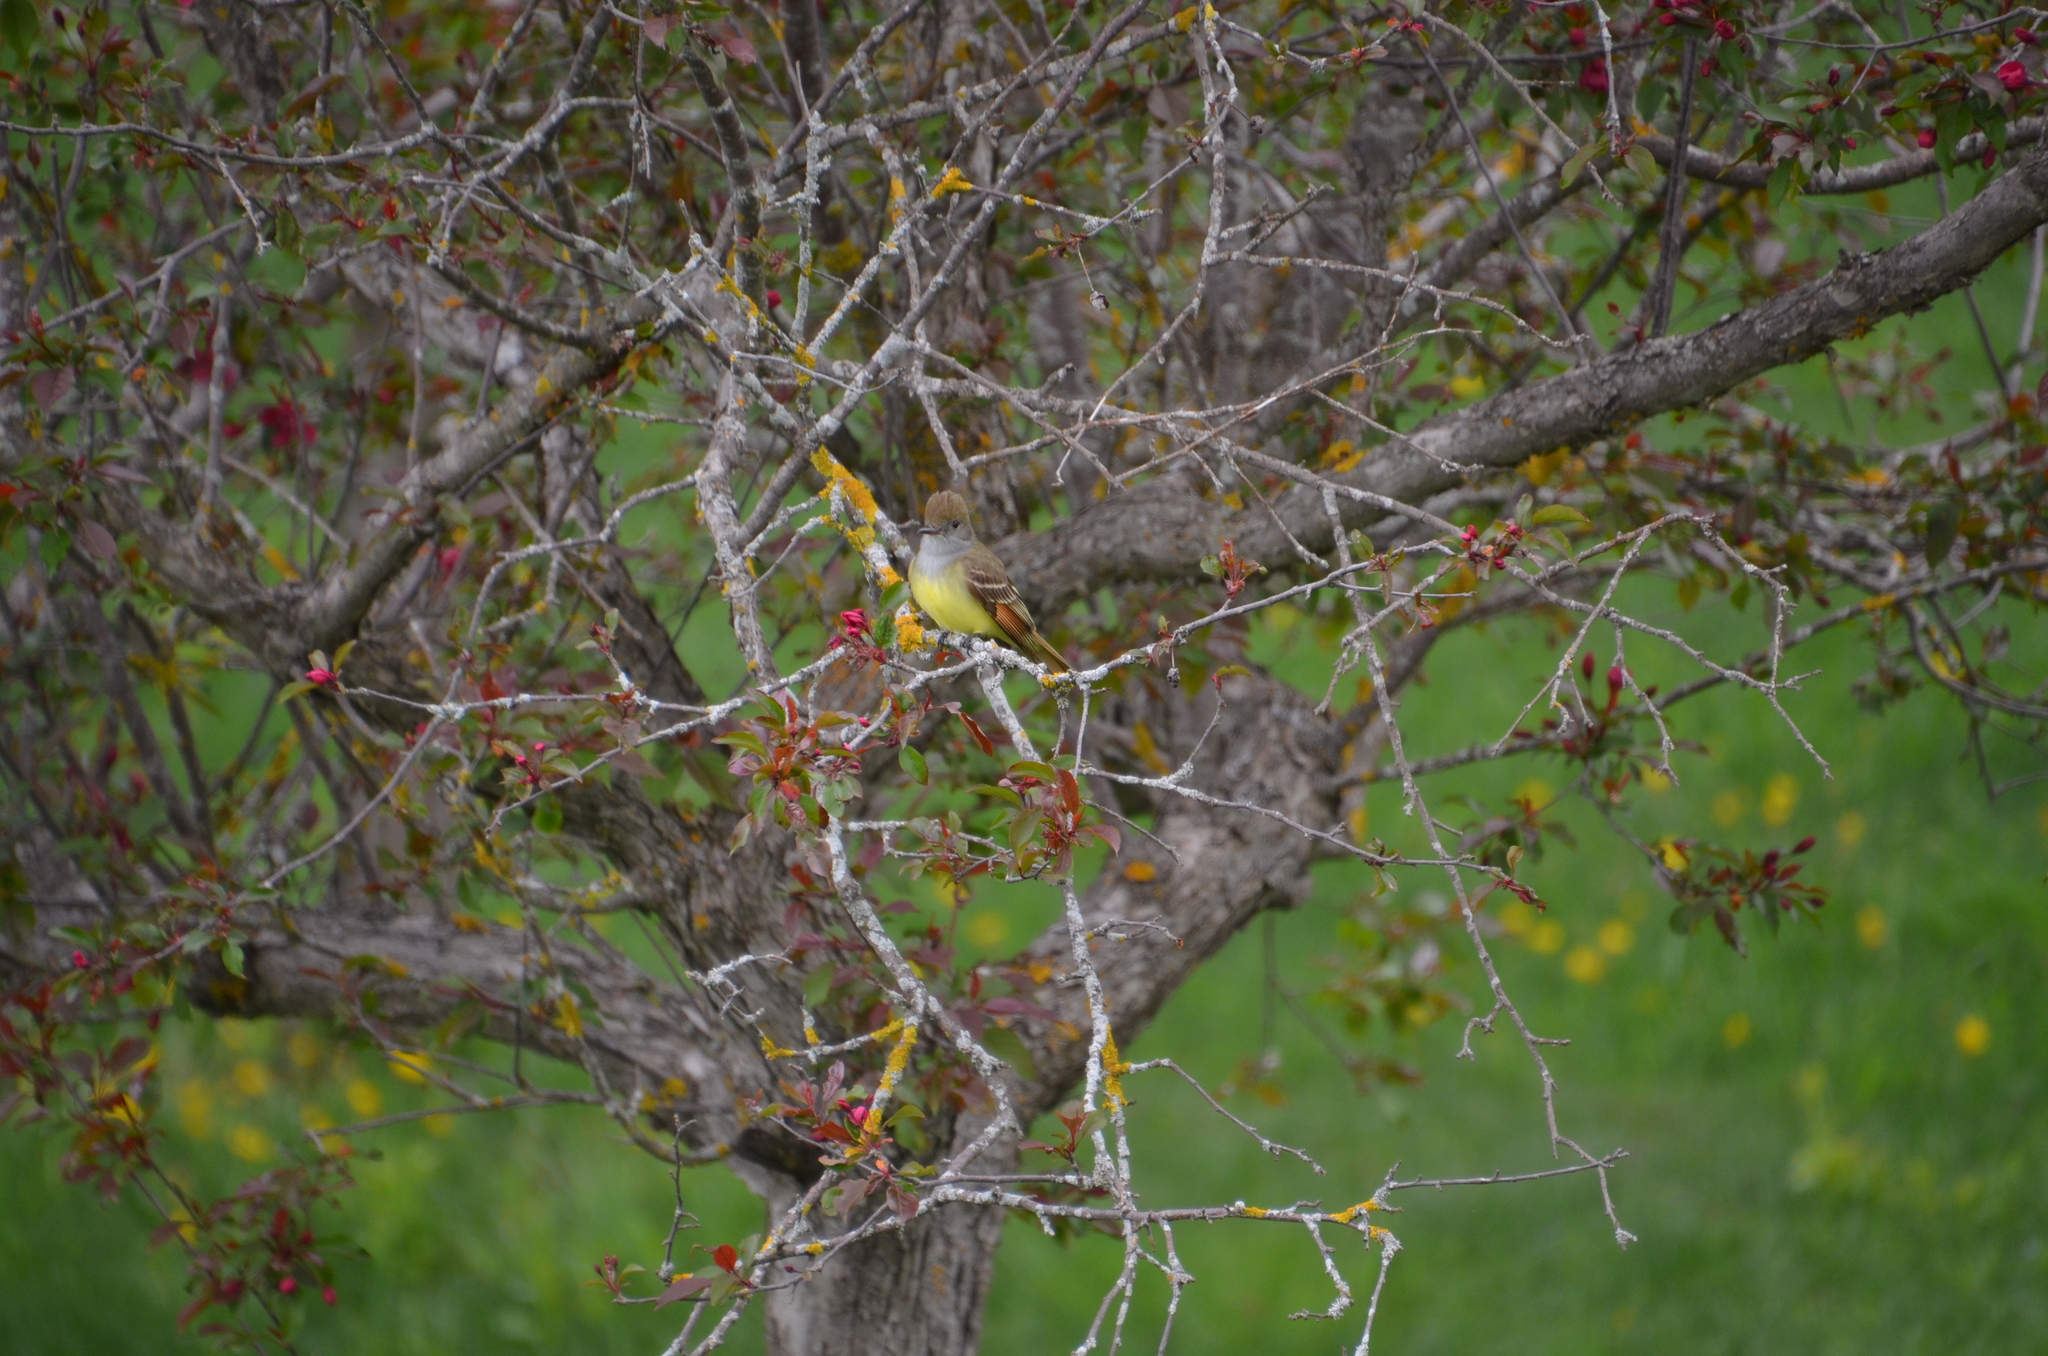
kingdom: Animalia
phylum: Chordata
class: Aves
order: Passeriformes
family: Tyrannidae
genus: Myiarchus
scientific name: Myiarchus crinitus
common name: Great crested flycatcher
